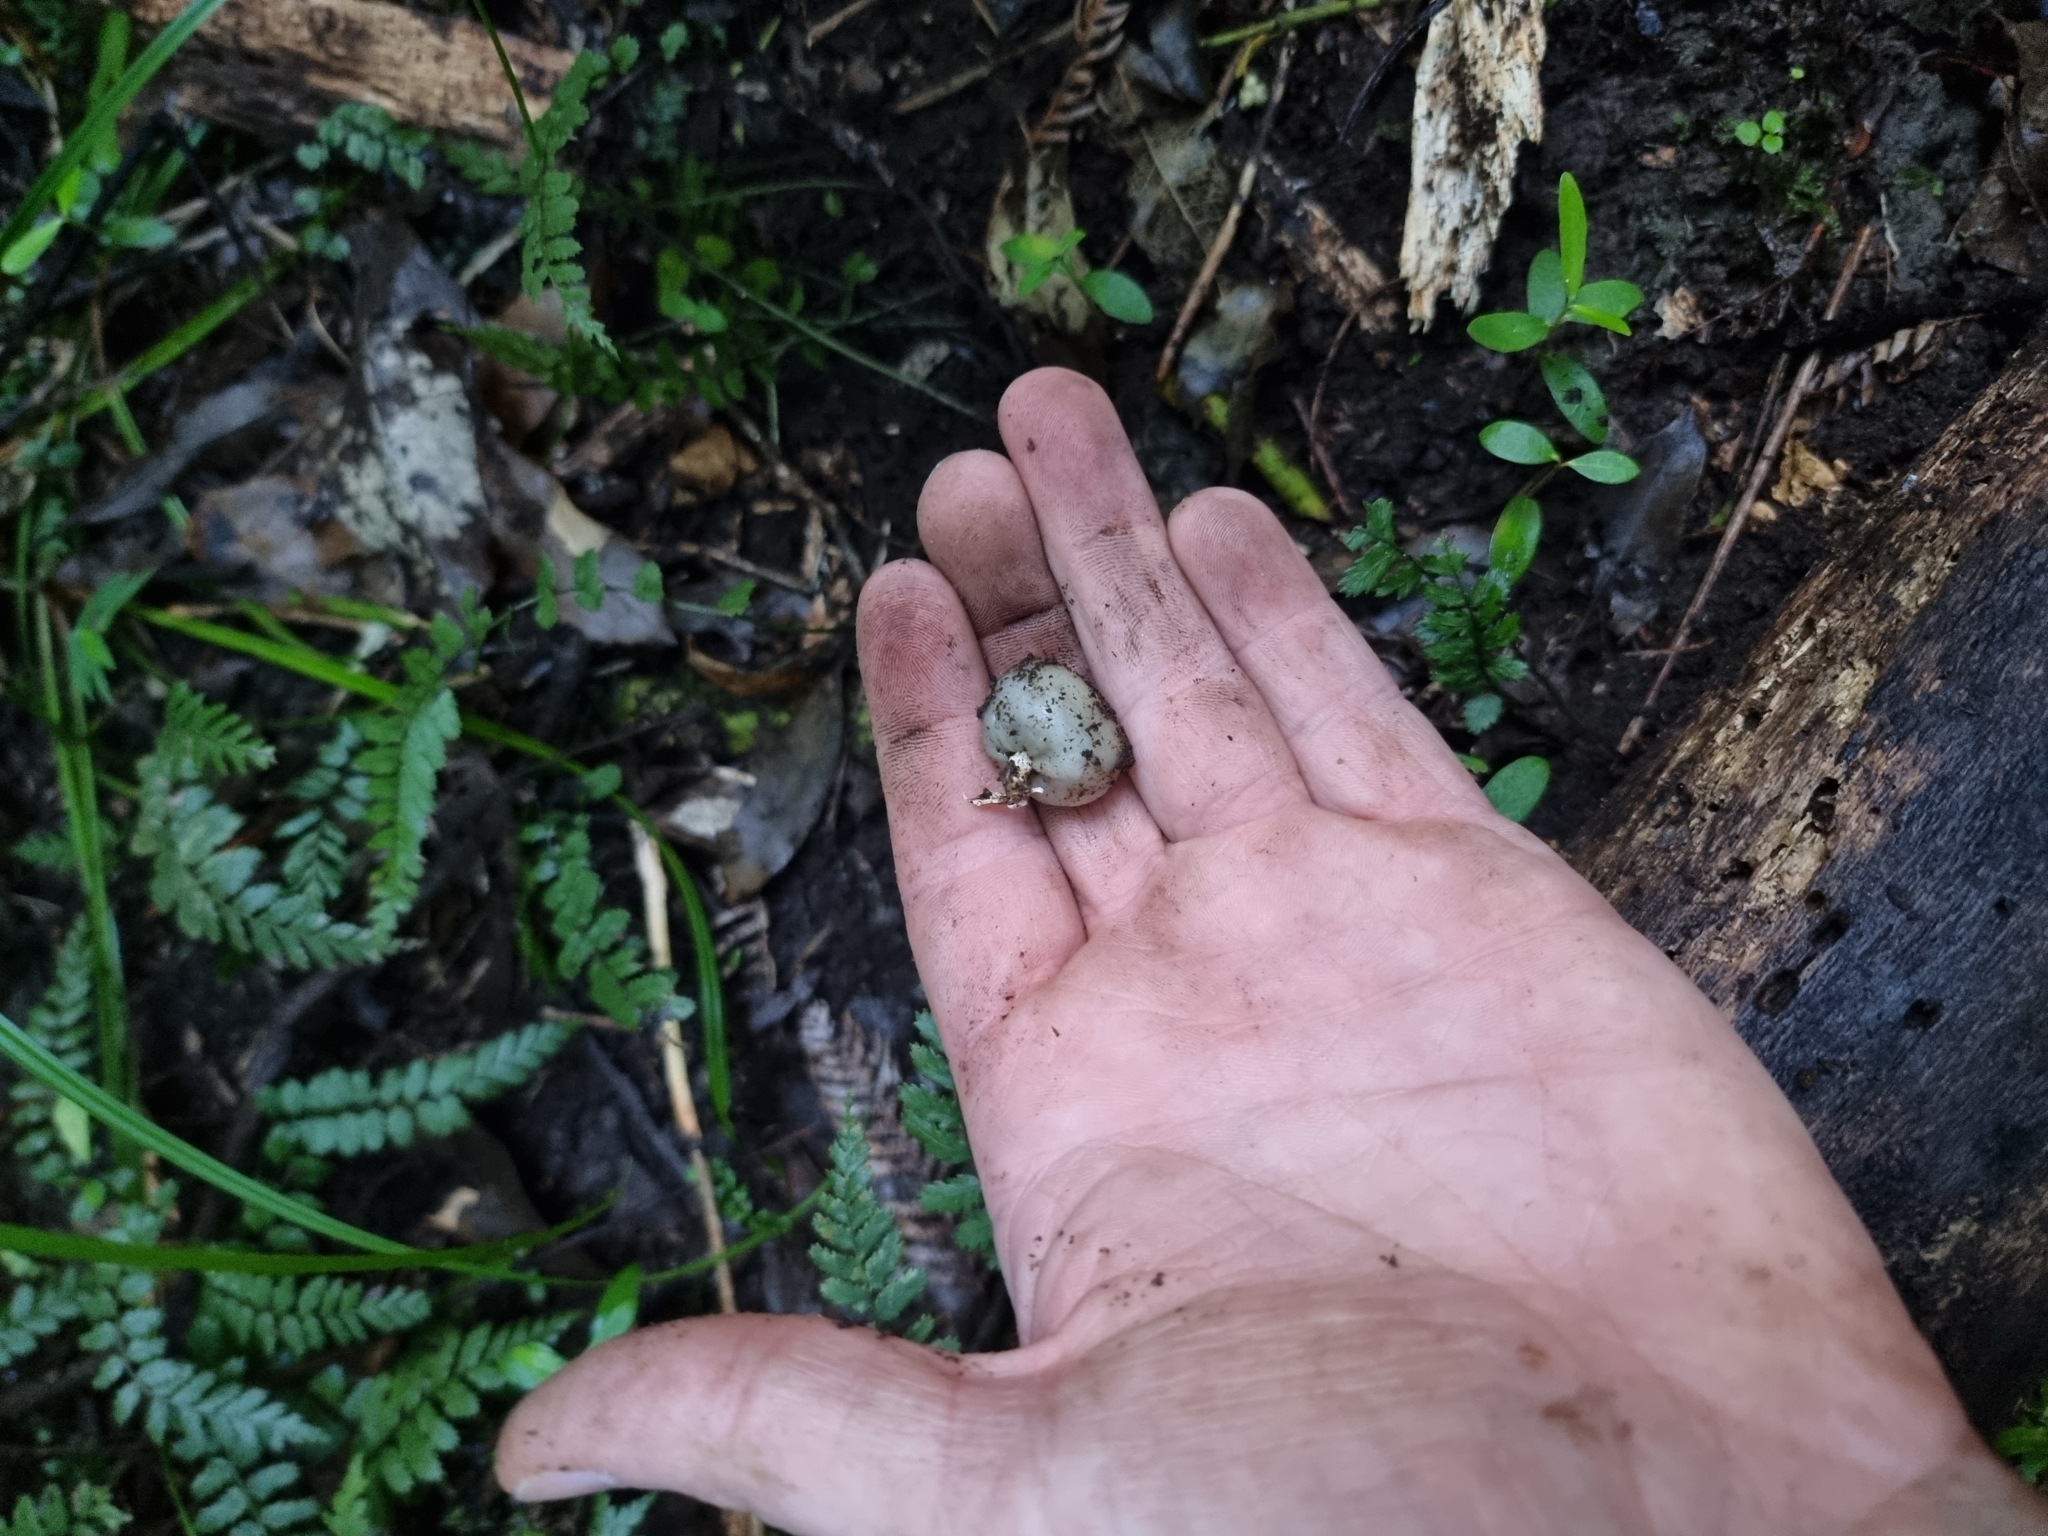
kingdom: Fungi
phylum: Basidiomycota
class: Agaricomycetes
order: Agaricales
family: Hymenogastraceae
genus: Psilocybe
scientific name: Psilocybe weraroa
